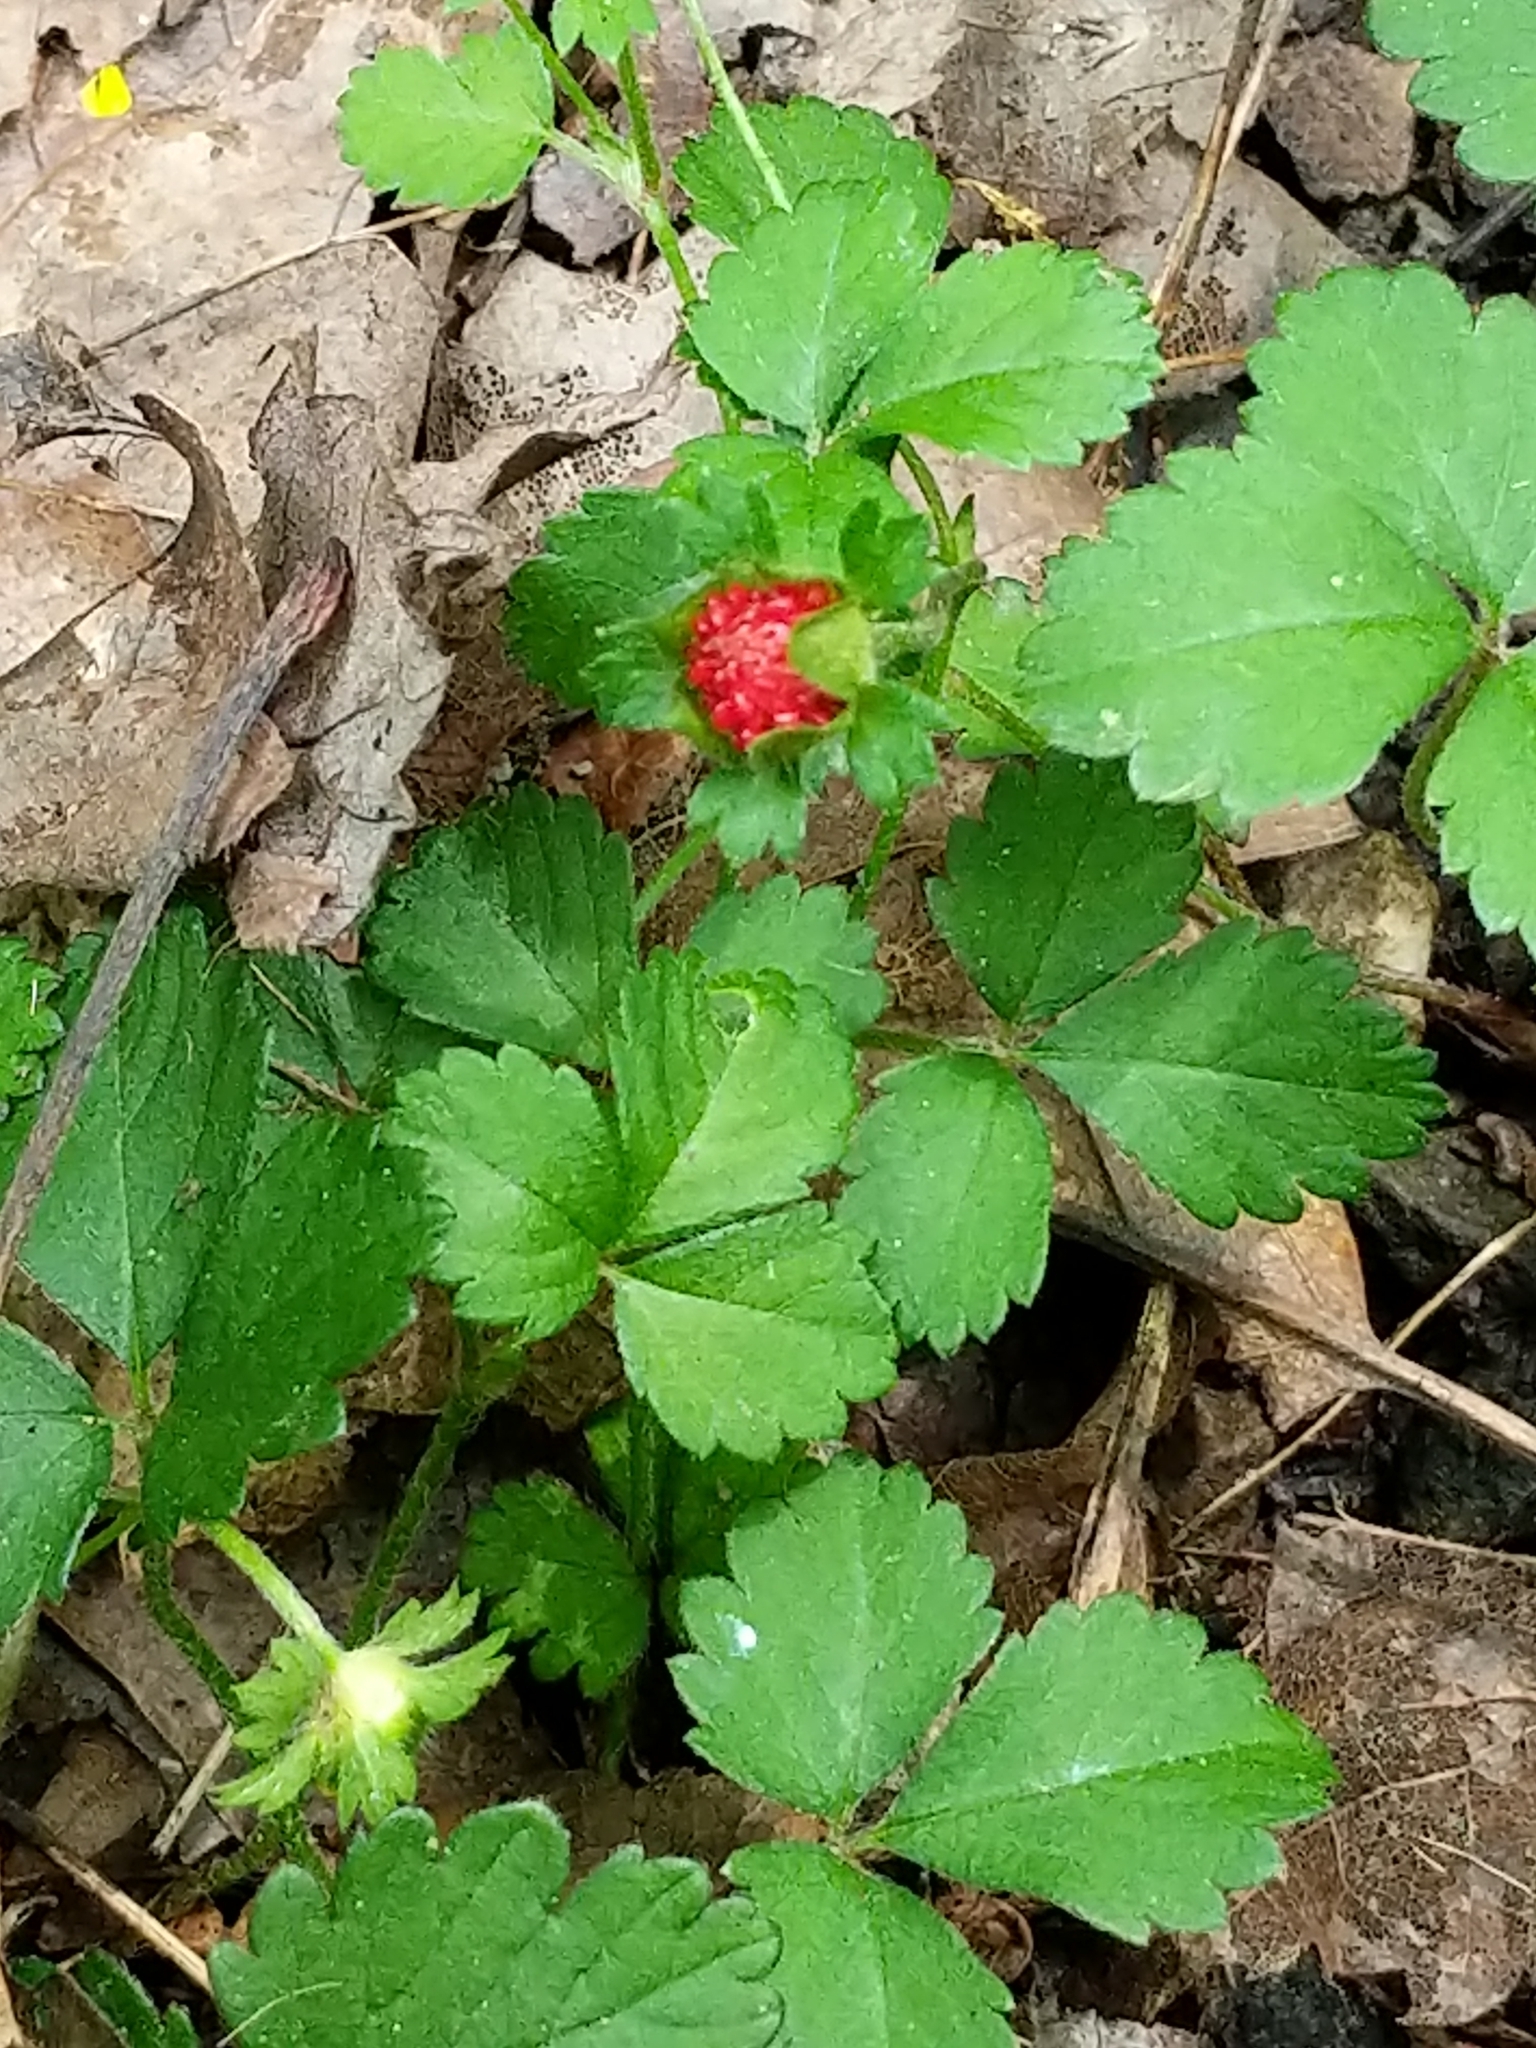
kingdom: Plantae
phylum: Tracheophyta
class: Magnoliopsida
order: Rosales
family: Rosaceae
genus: Potentilla
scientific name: Potentilla indica
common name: Yellow-flowered strawberry
